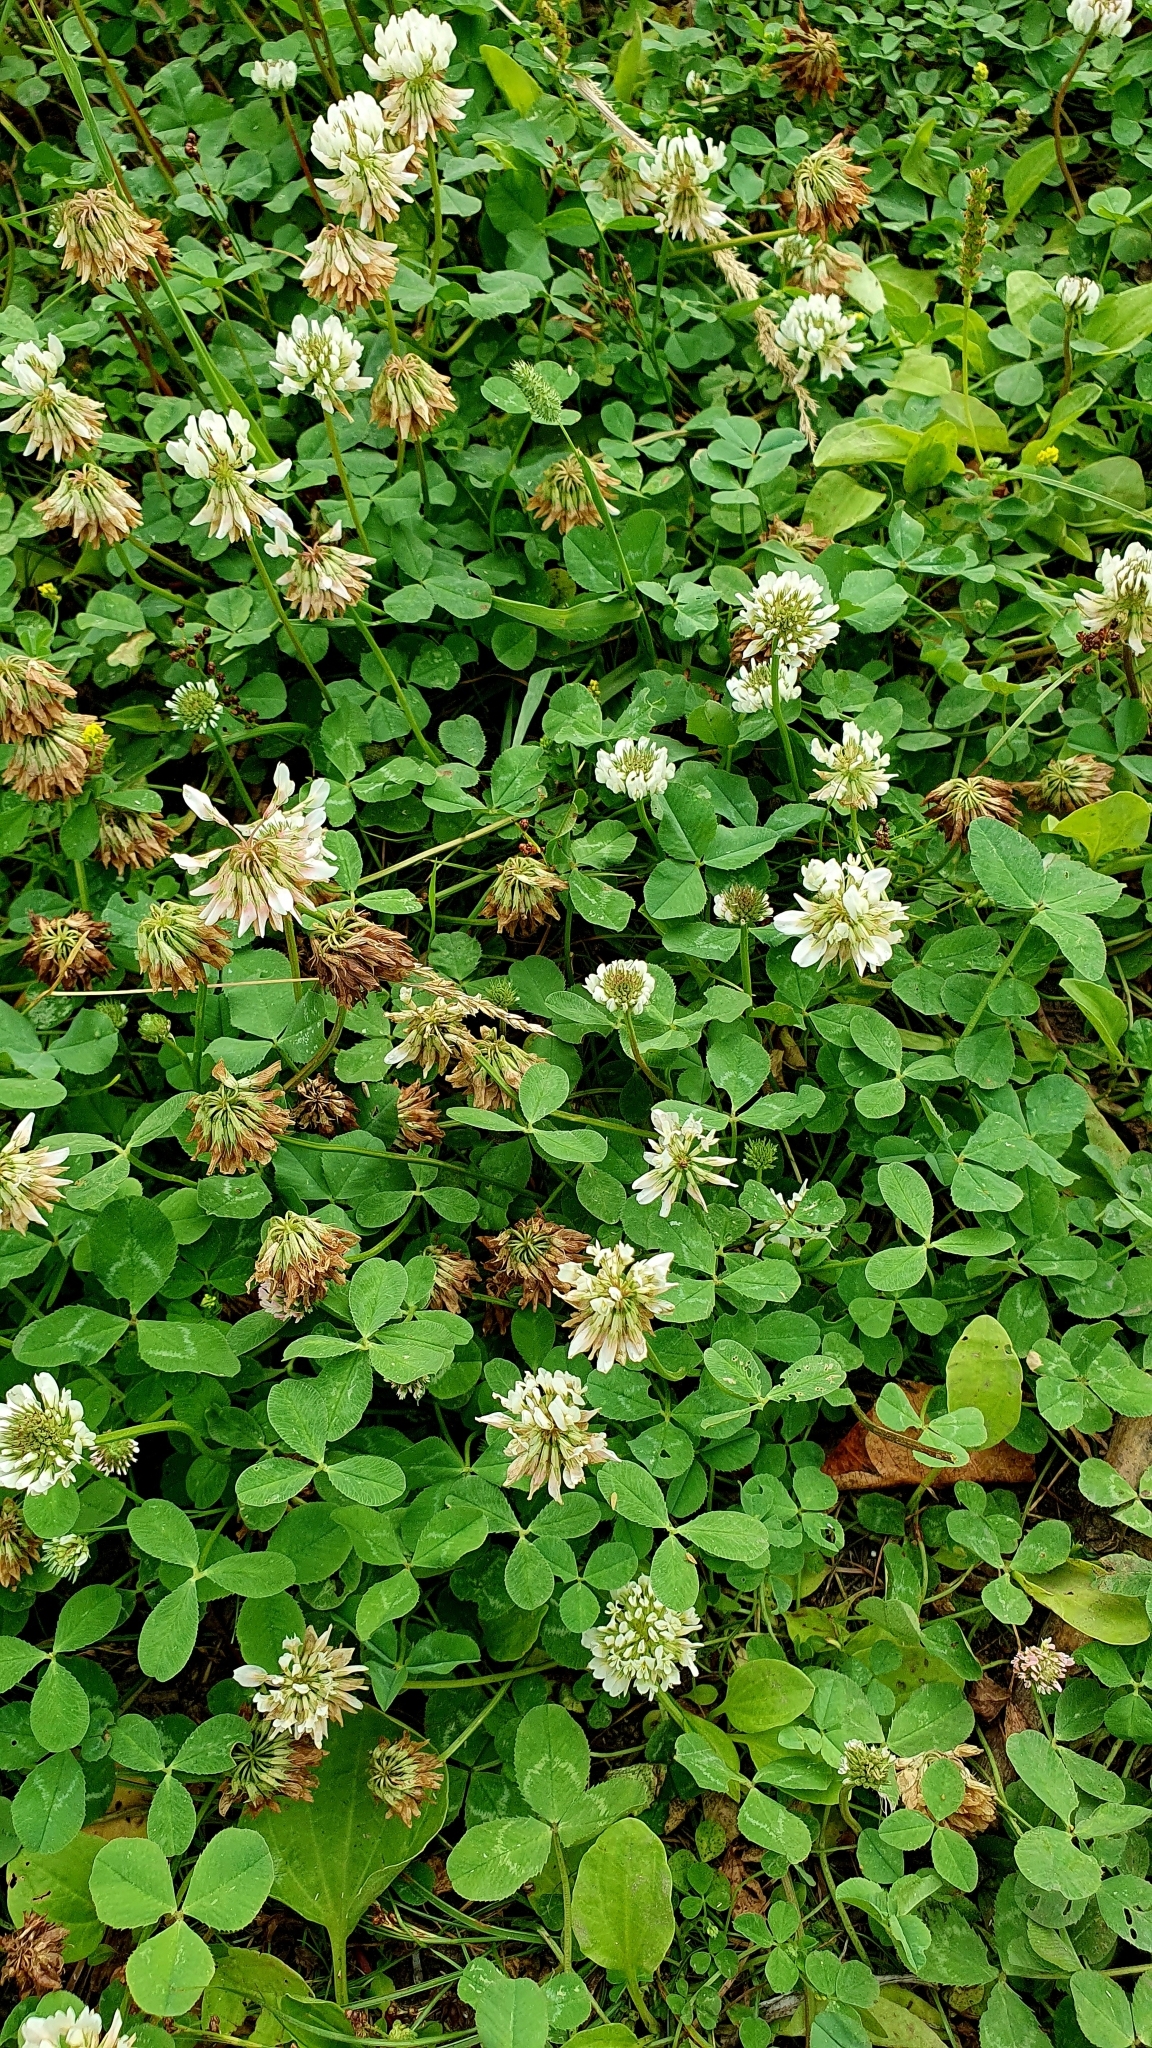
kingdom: Plantae
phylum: Tracheophyta
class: Magnoliopsida
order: Fabales
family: Fabaceae
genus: Trifolium
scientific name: Trifolium repens
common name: White clover
